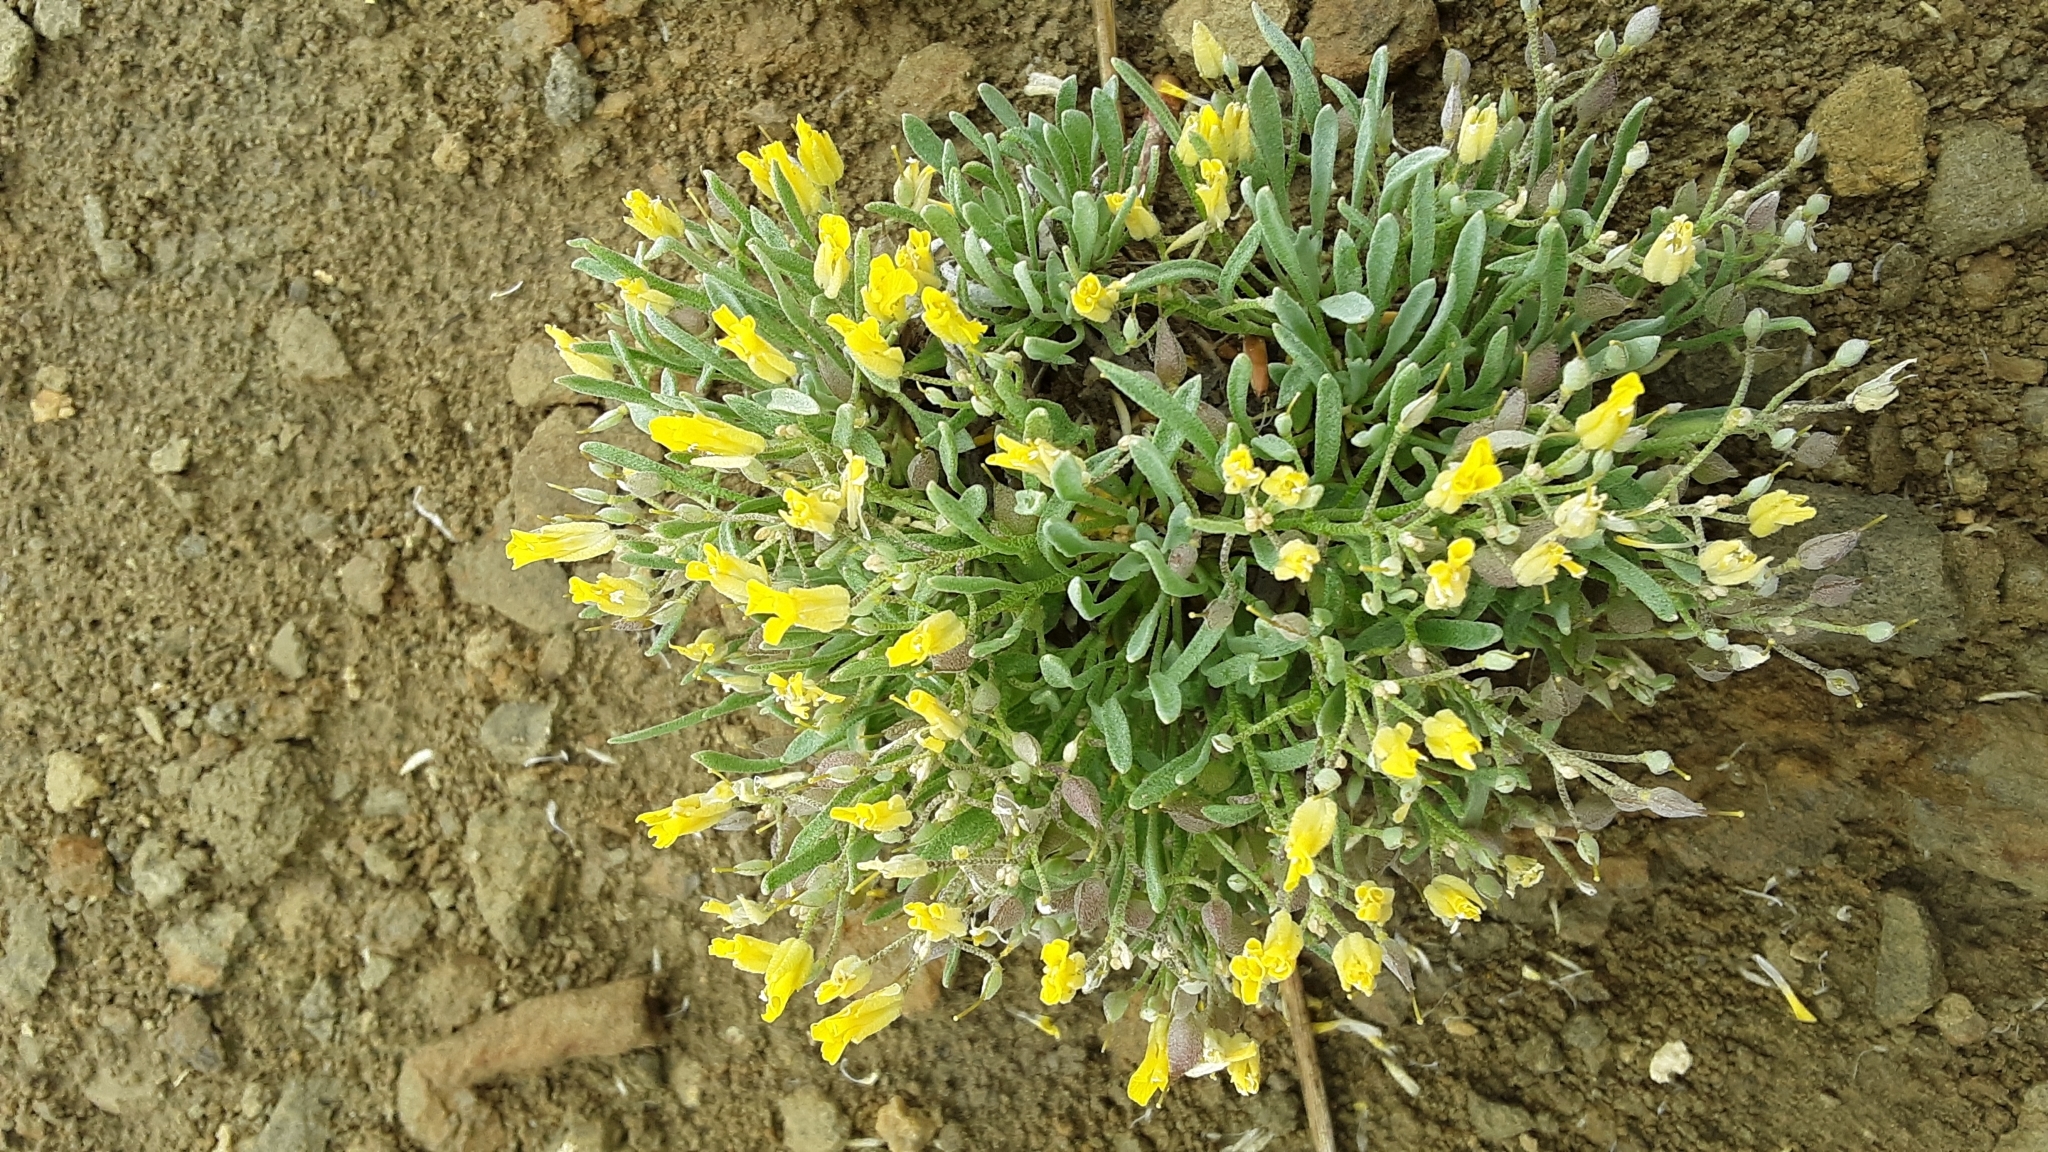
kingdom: Plantae
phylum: Tracheophyta
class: Magnoliopsida
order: Brassicales
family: Brassicaceae
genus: Physaria
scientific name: Physaria spatulata
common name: Alpine bladderpod
